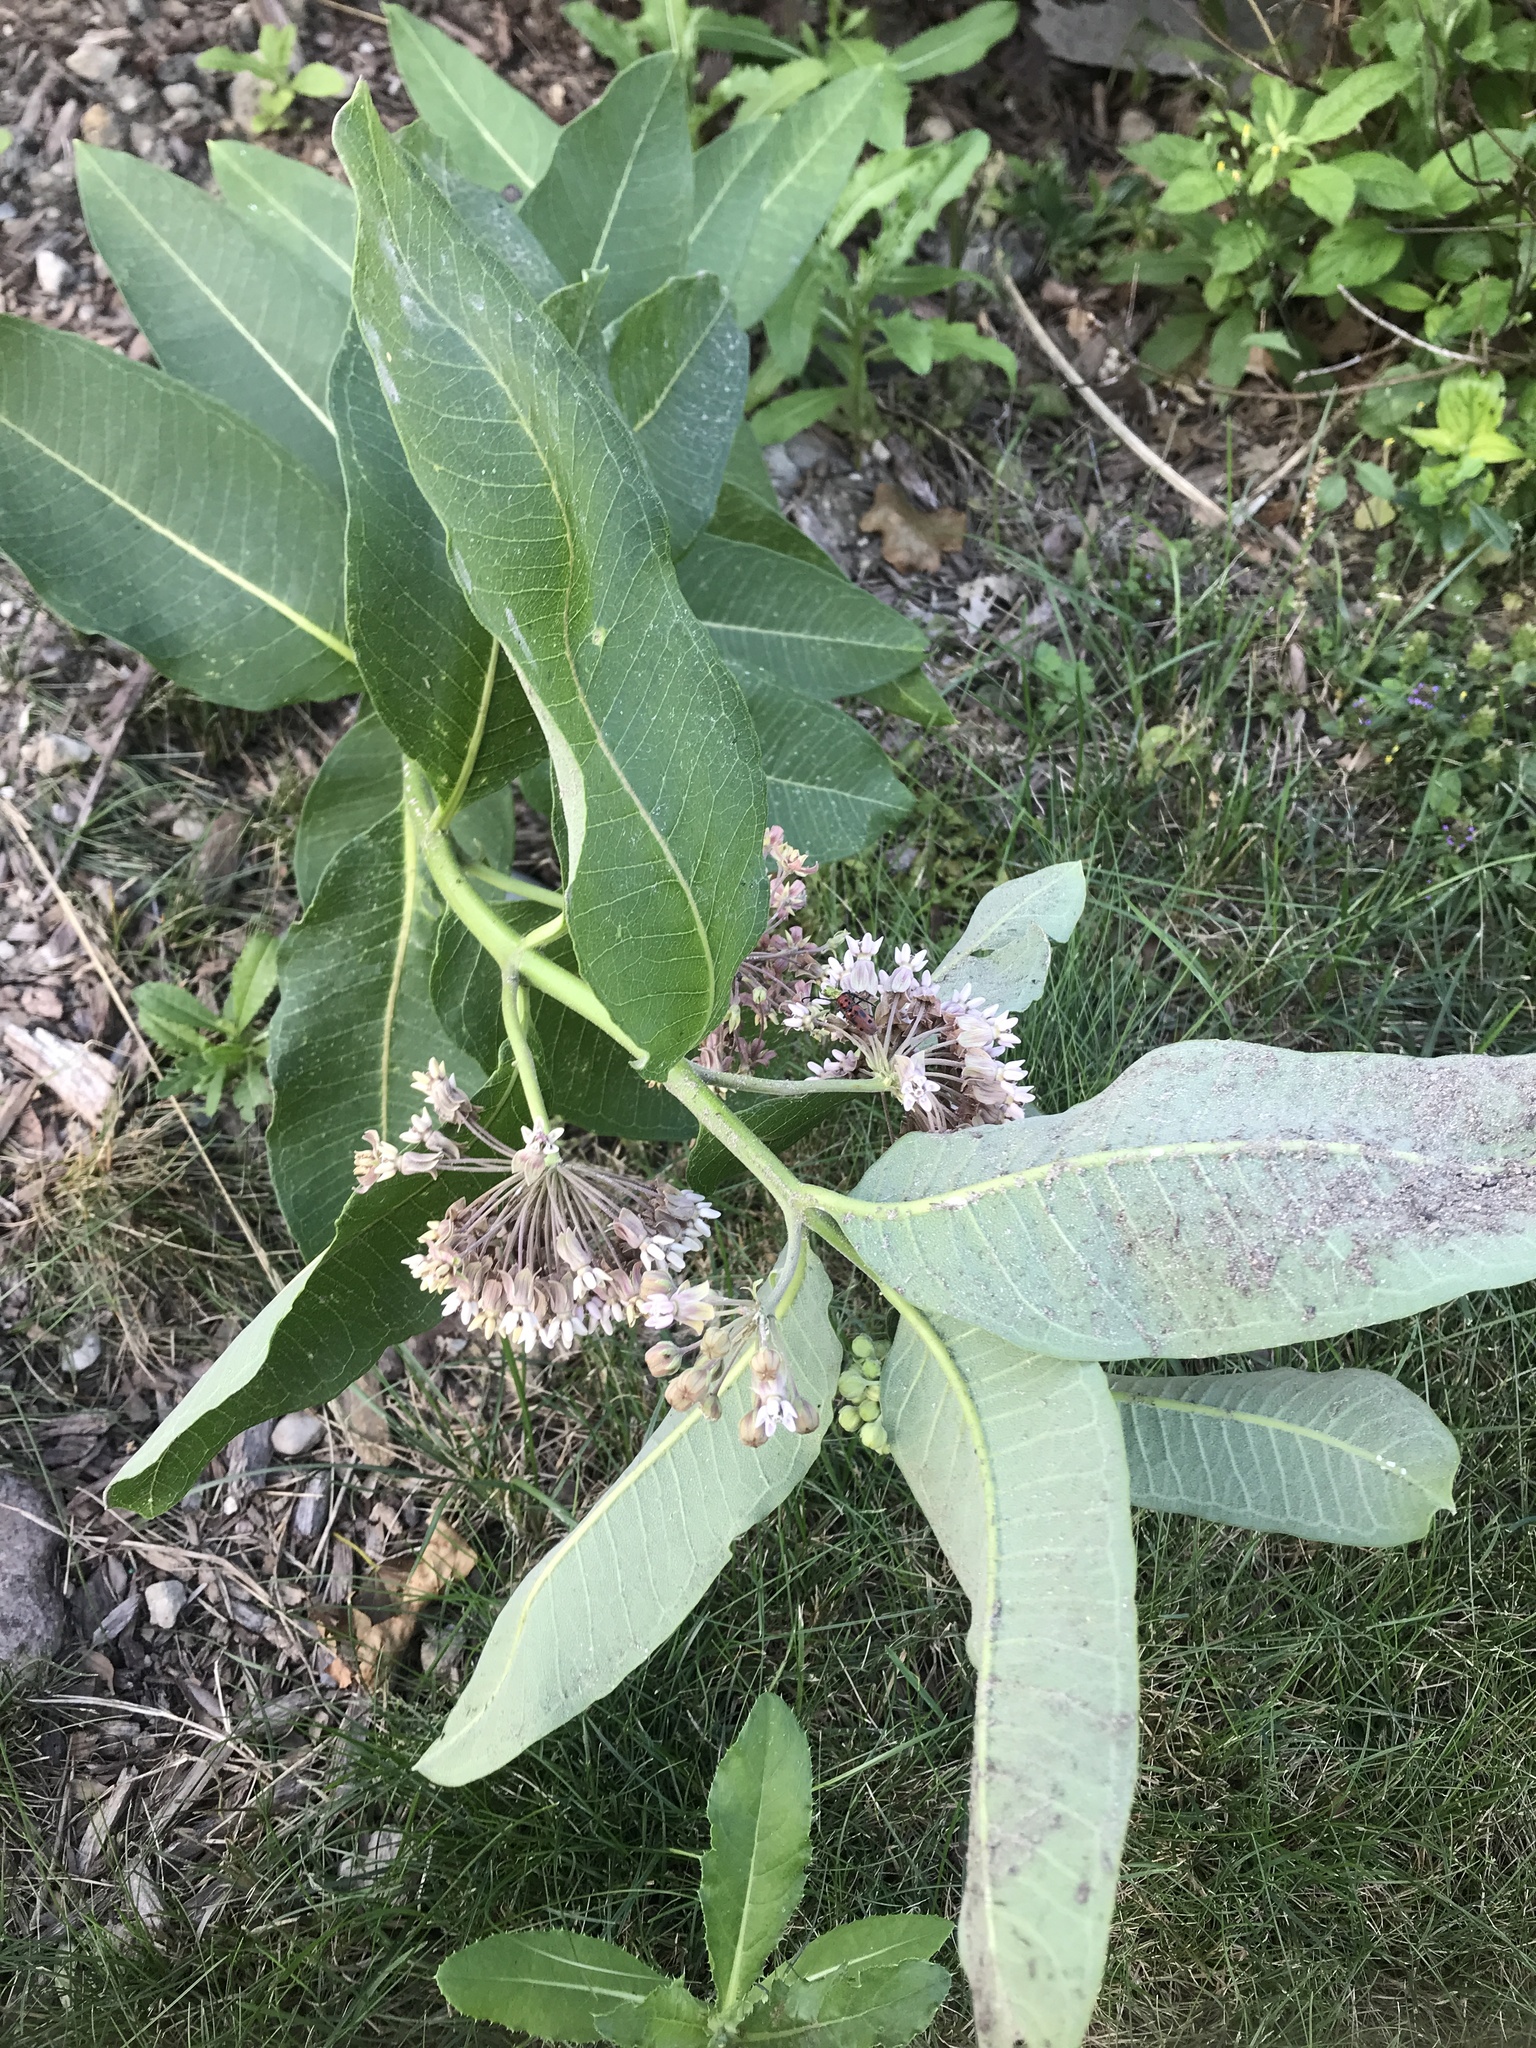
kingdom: Plantae
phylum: Tracheophyta
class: Magnoliopsida
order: Gentianales
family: Apocynaceae
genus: Asclepias
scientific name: Asclepias syriaca
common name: Common milkweed
